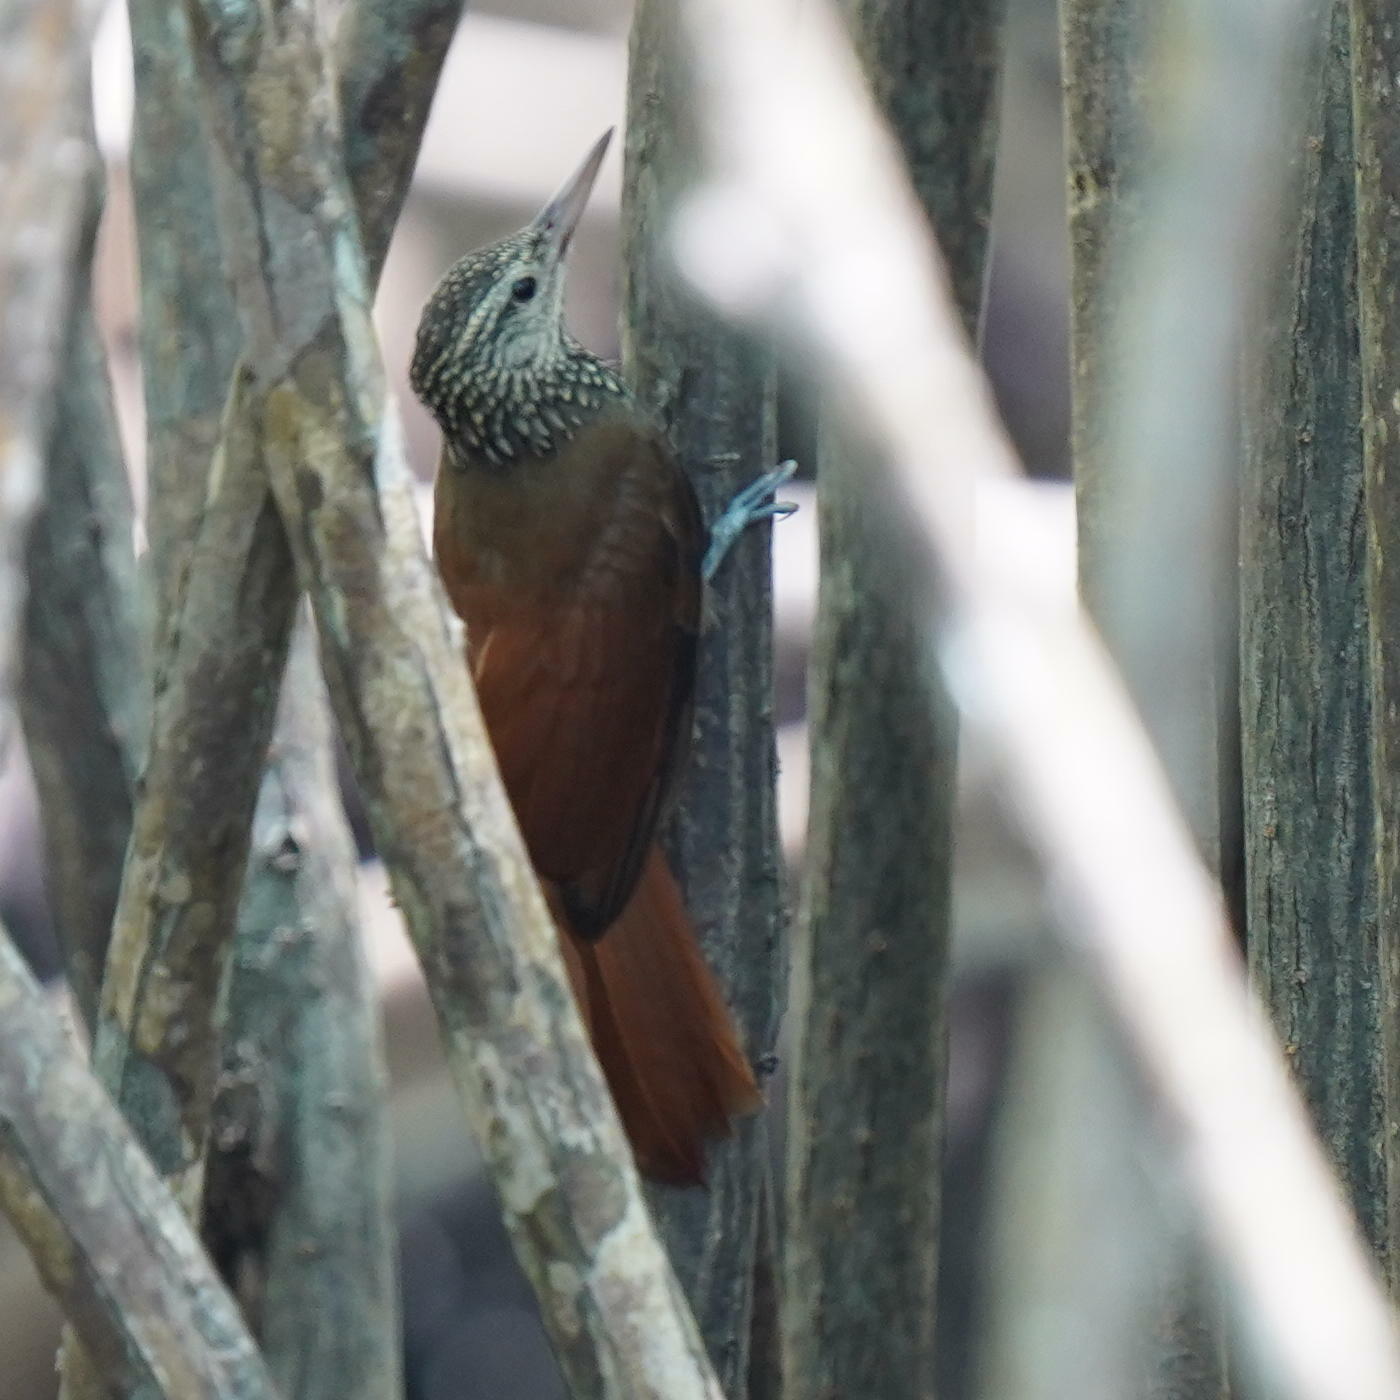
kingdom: Animalia
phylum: Chordata
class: Aves
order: Passeriformes
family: Furnariidae
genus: Xiphorhynchus
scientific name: Xiphorhynchus picus
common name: Straight-billed woodcreeper
